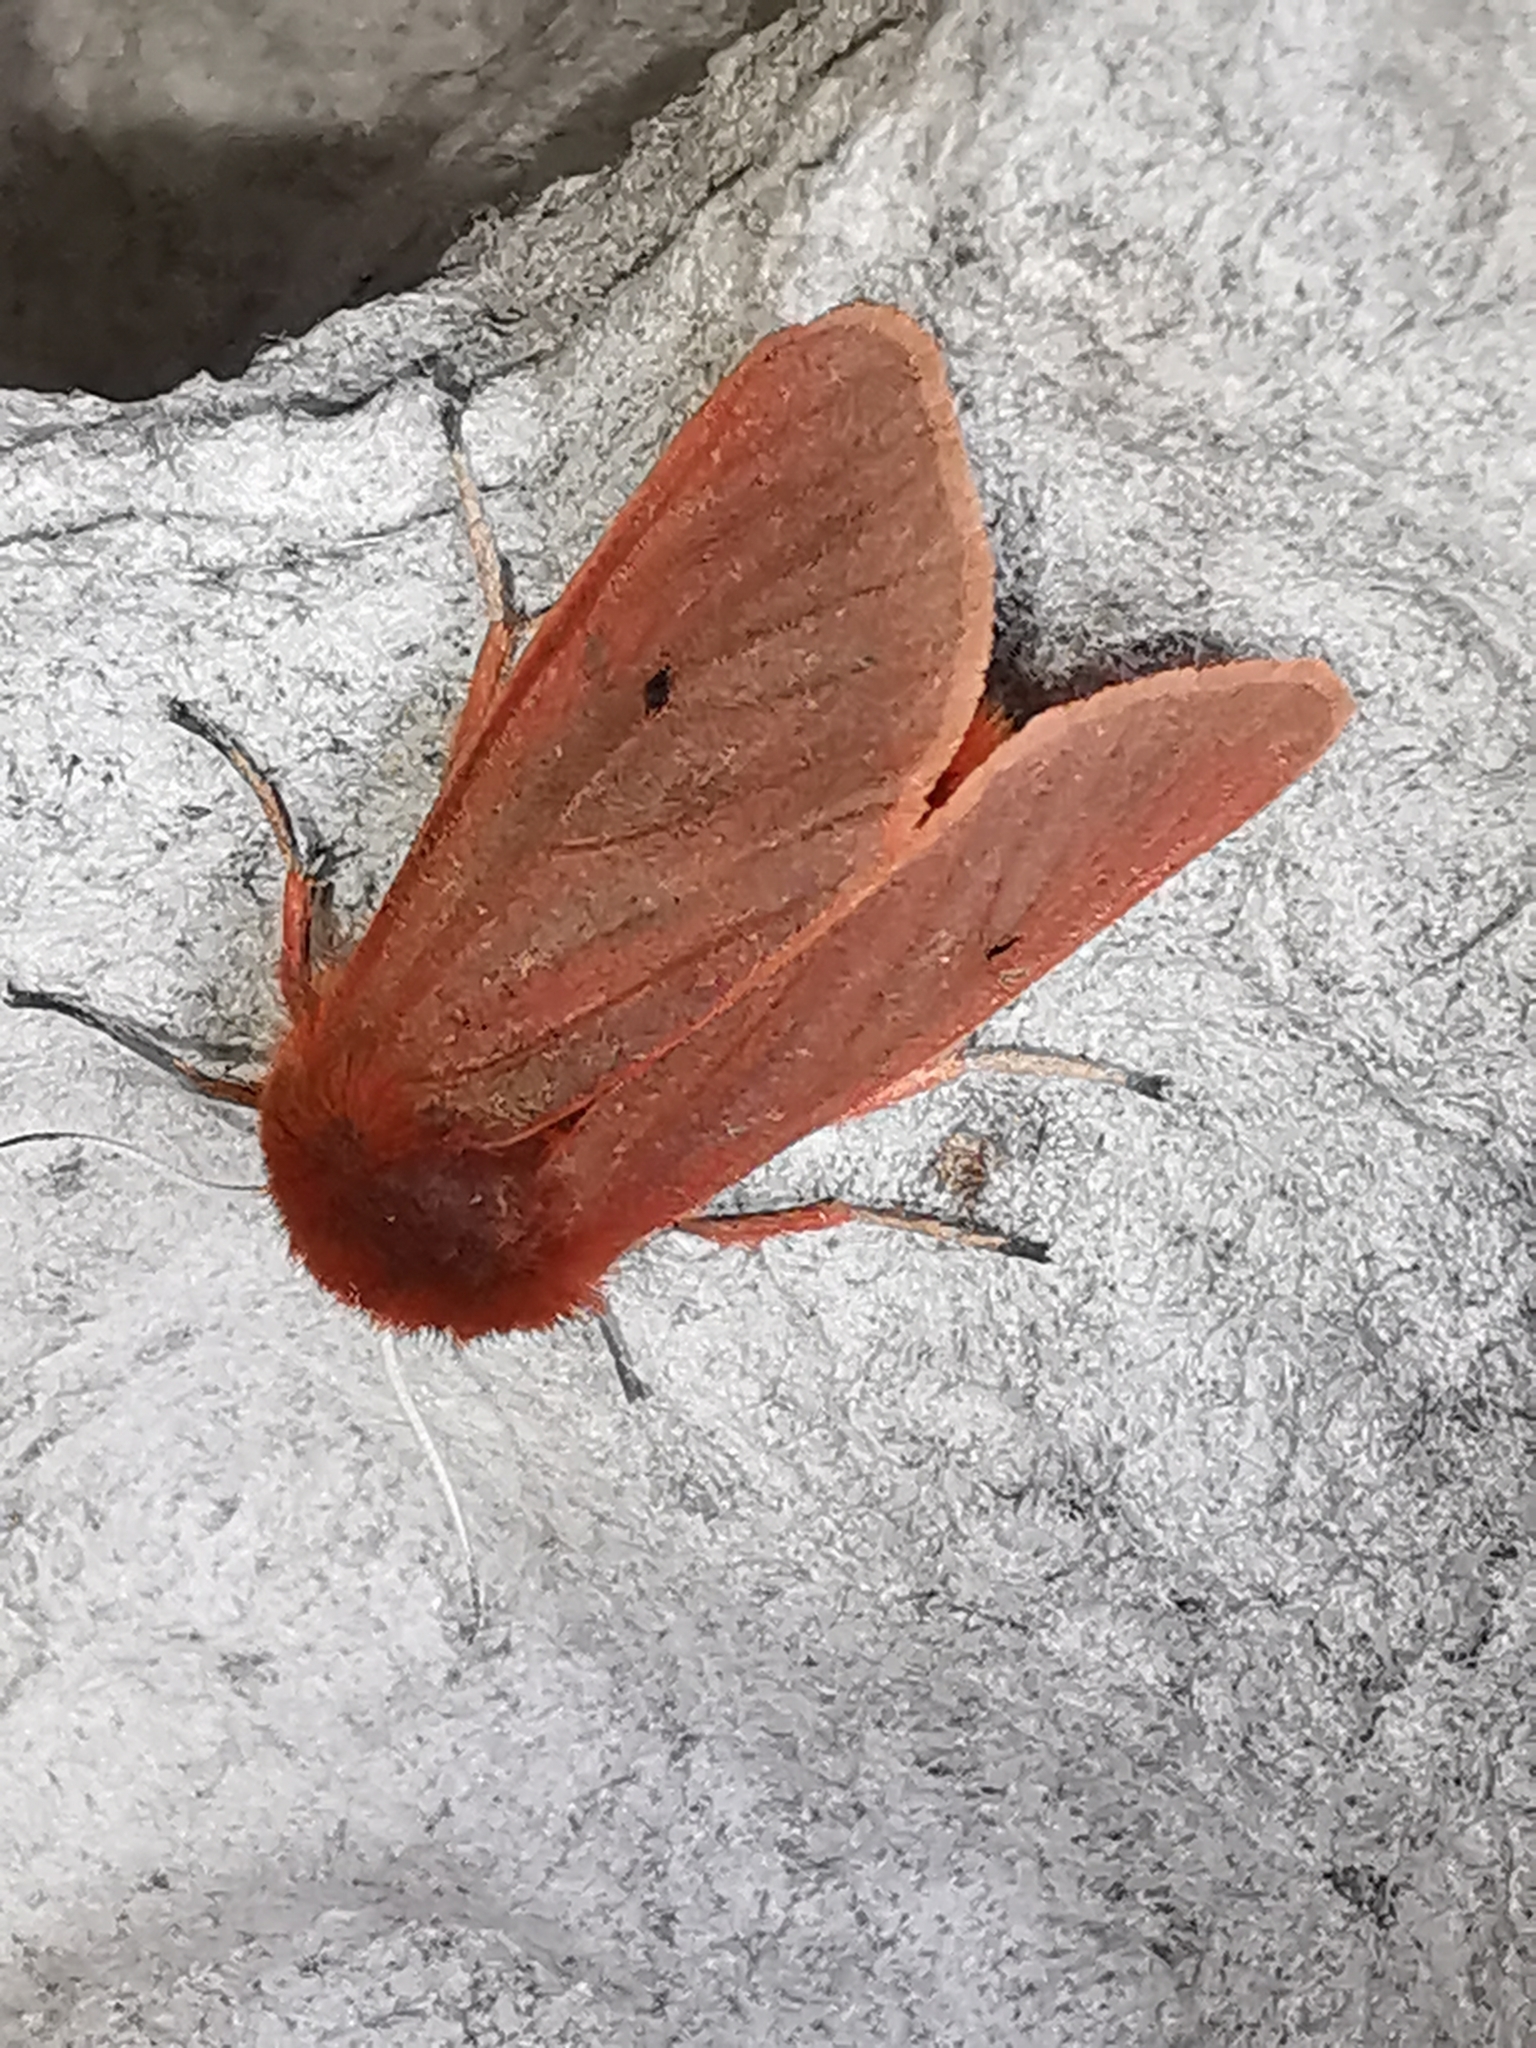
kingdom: Animalia
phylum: Arthropoda
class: Insecta
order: Lepidoptera
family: Erebidae
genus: Phragmatobia
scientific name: Phragmatobia fuliginosa
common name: Ruby tiger
